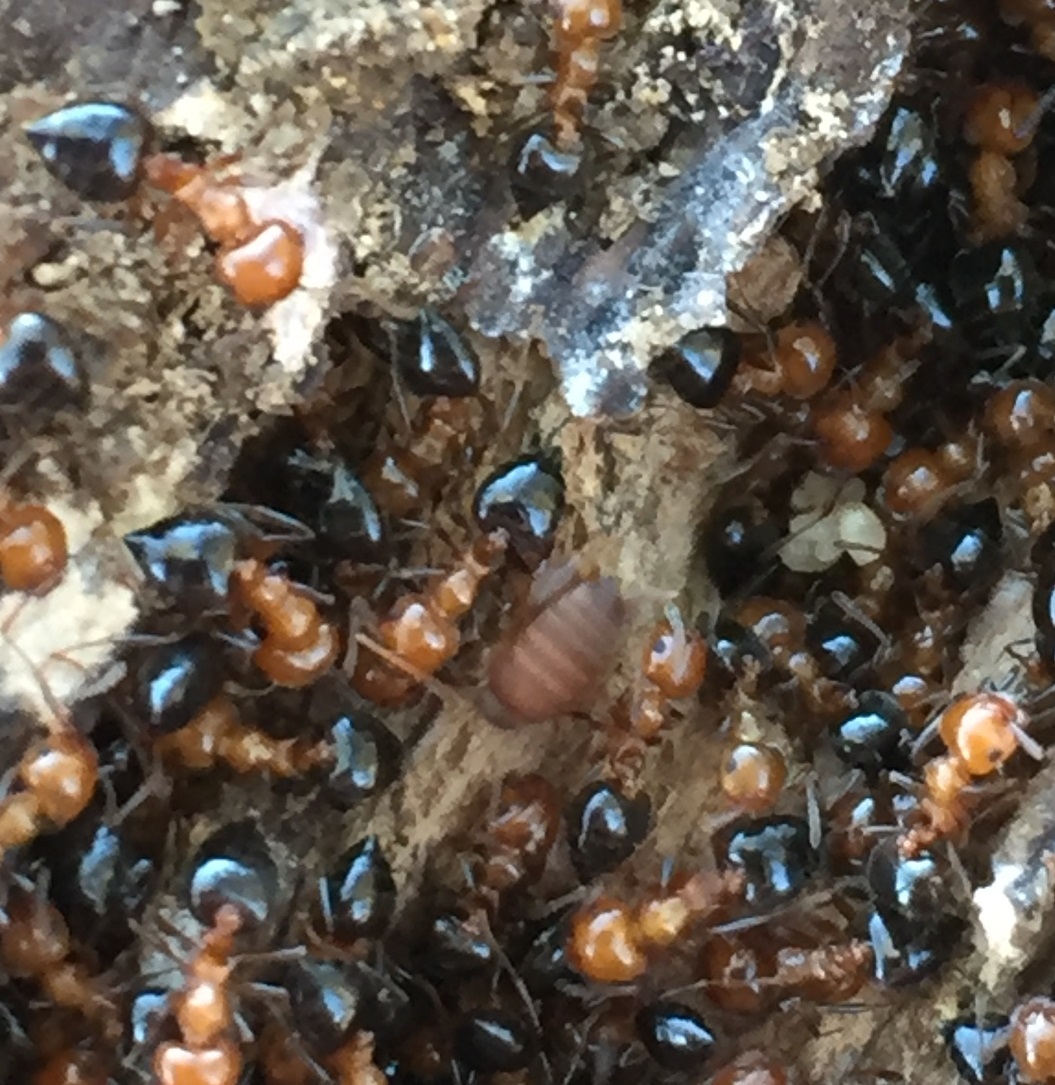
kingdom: Animalia
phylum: Arthropoda
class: Insecta
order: Orthoptera
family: Myrmecophilidae
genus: Myrmecophilus
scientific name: Myrmecophilus nebrascensis
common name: Nebraska ant cricket
